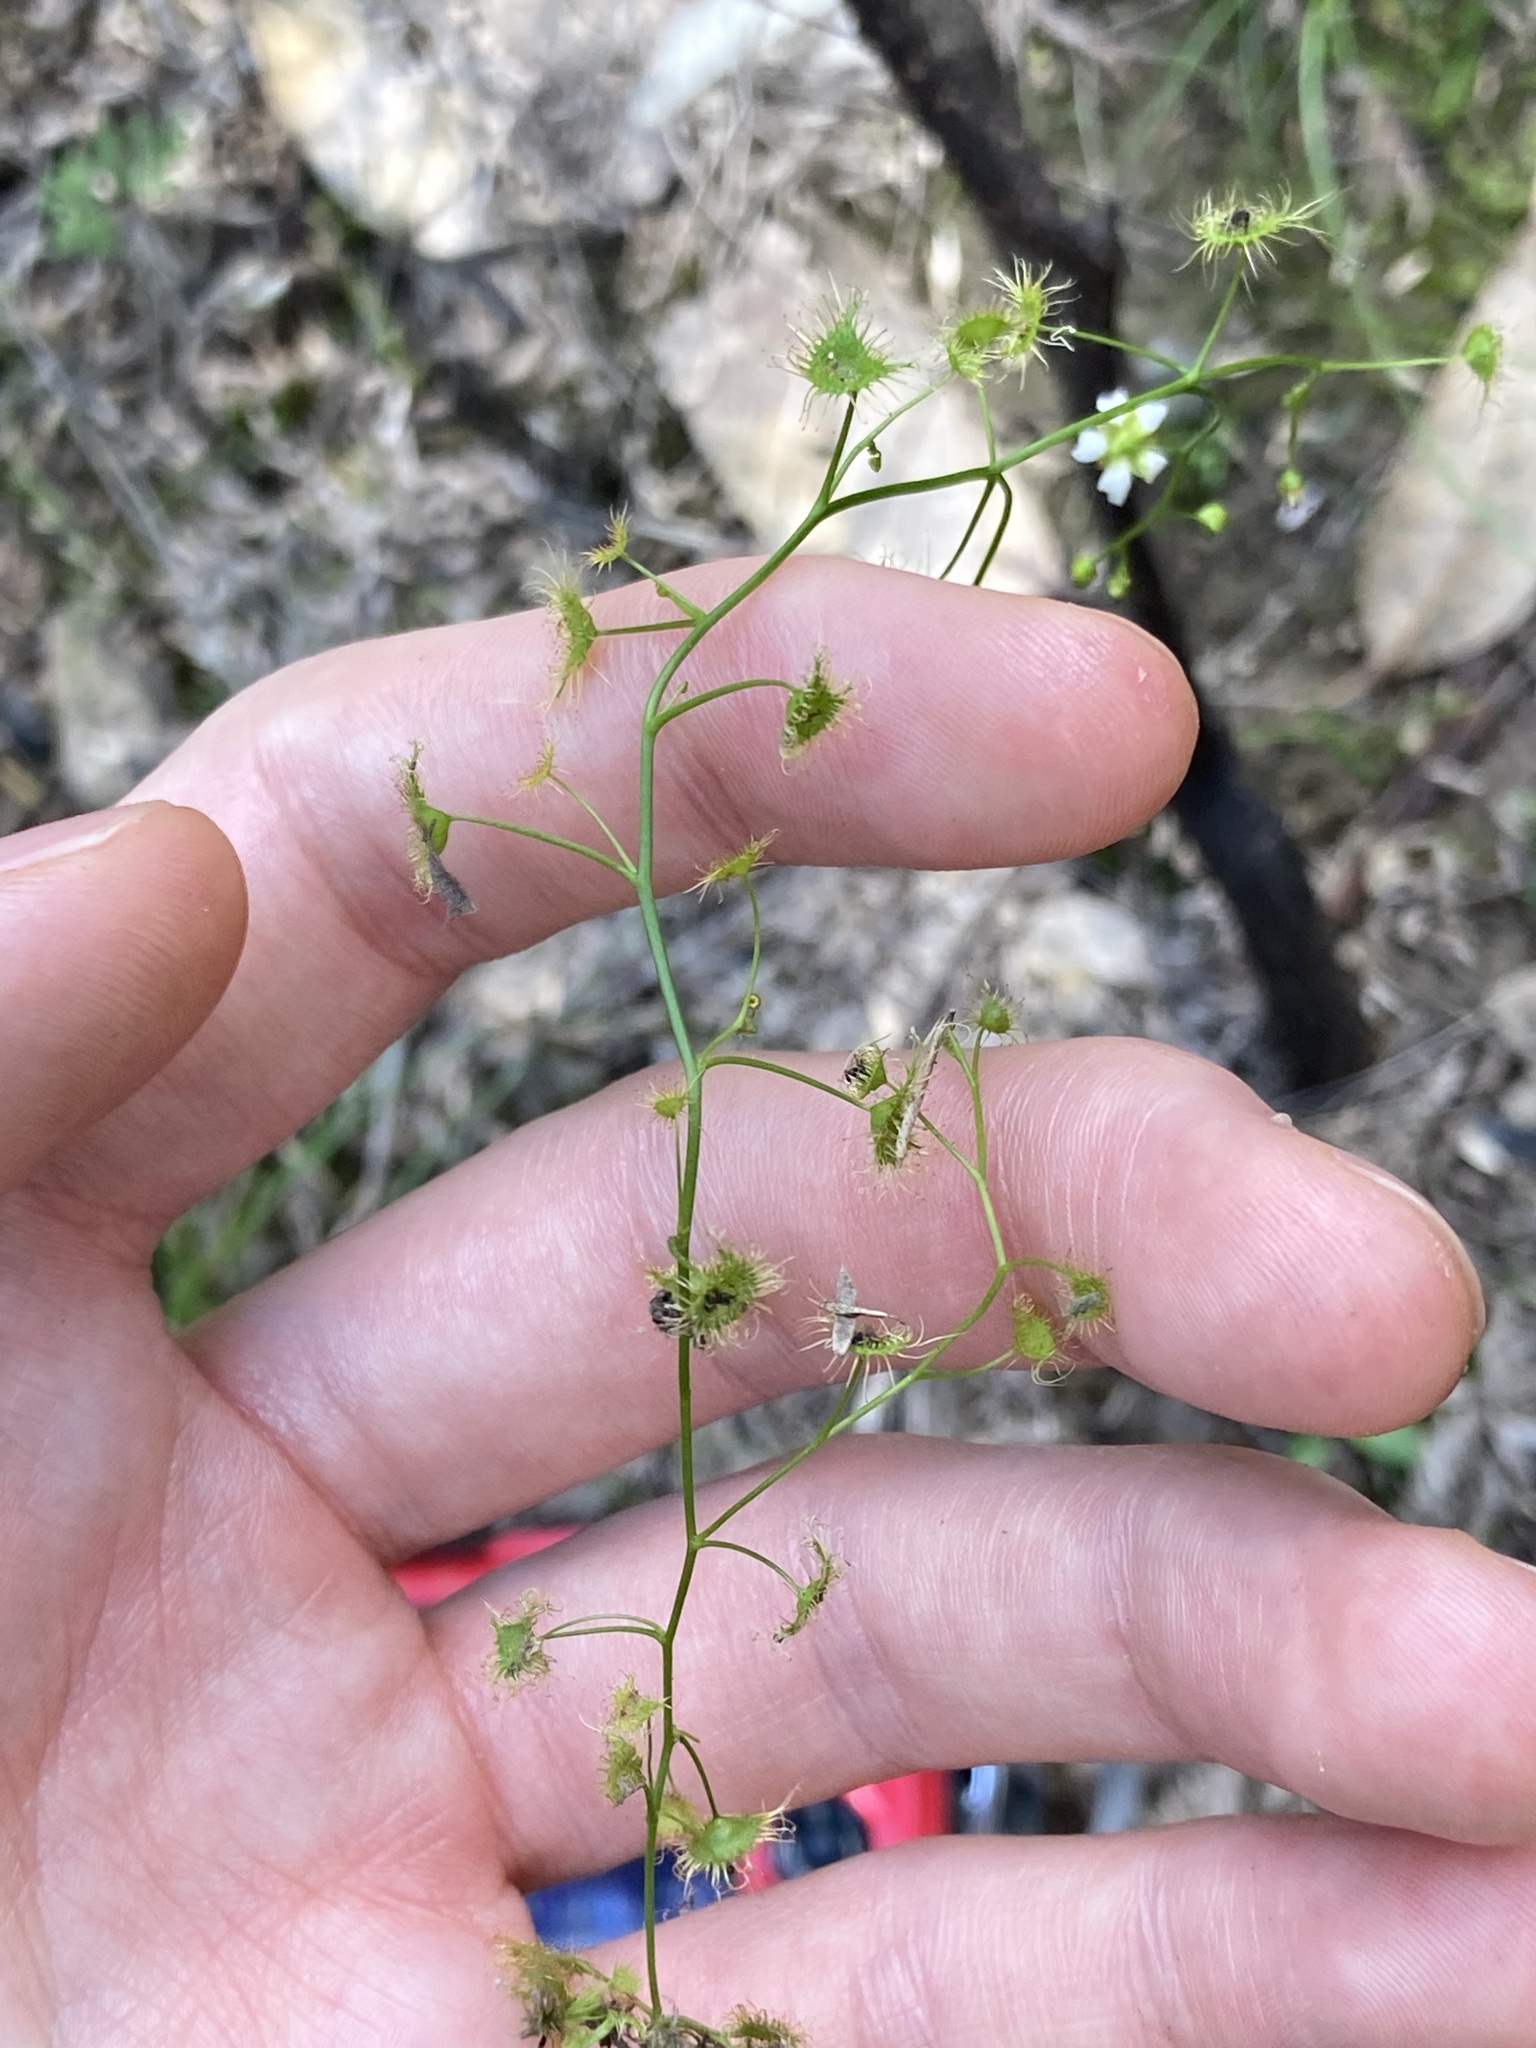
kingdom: Plantae
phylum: Tracheophyta
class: Magnoliopsida
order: Caryophyllales
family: Droseraceae
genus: Drosera
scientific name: Drosera peltata
